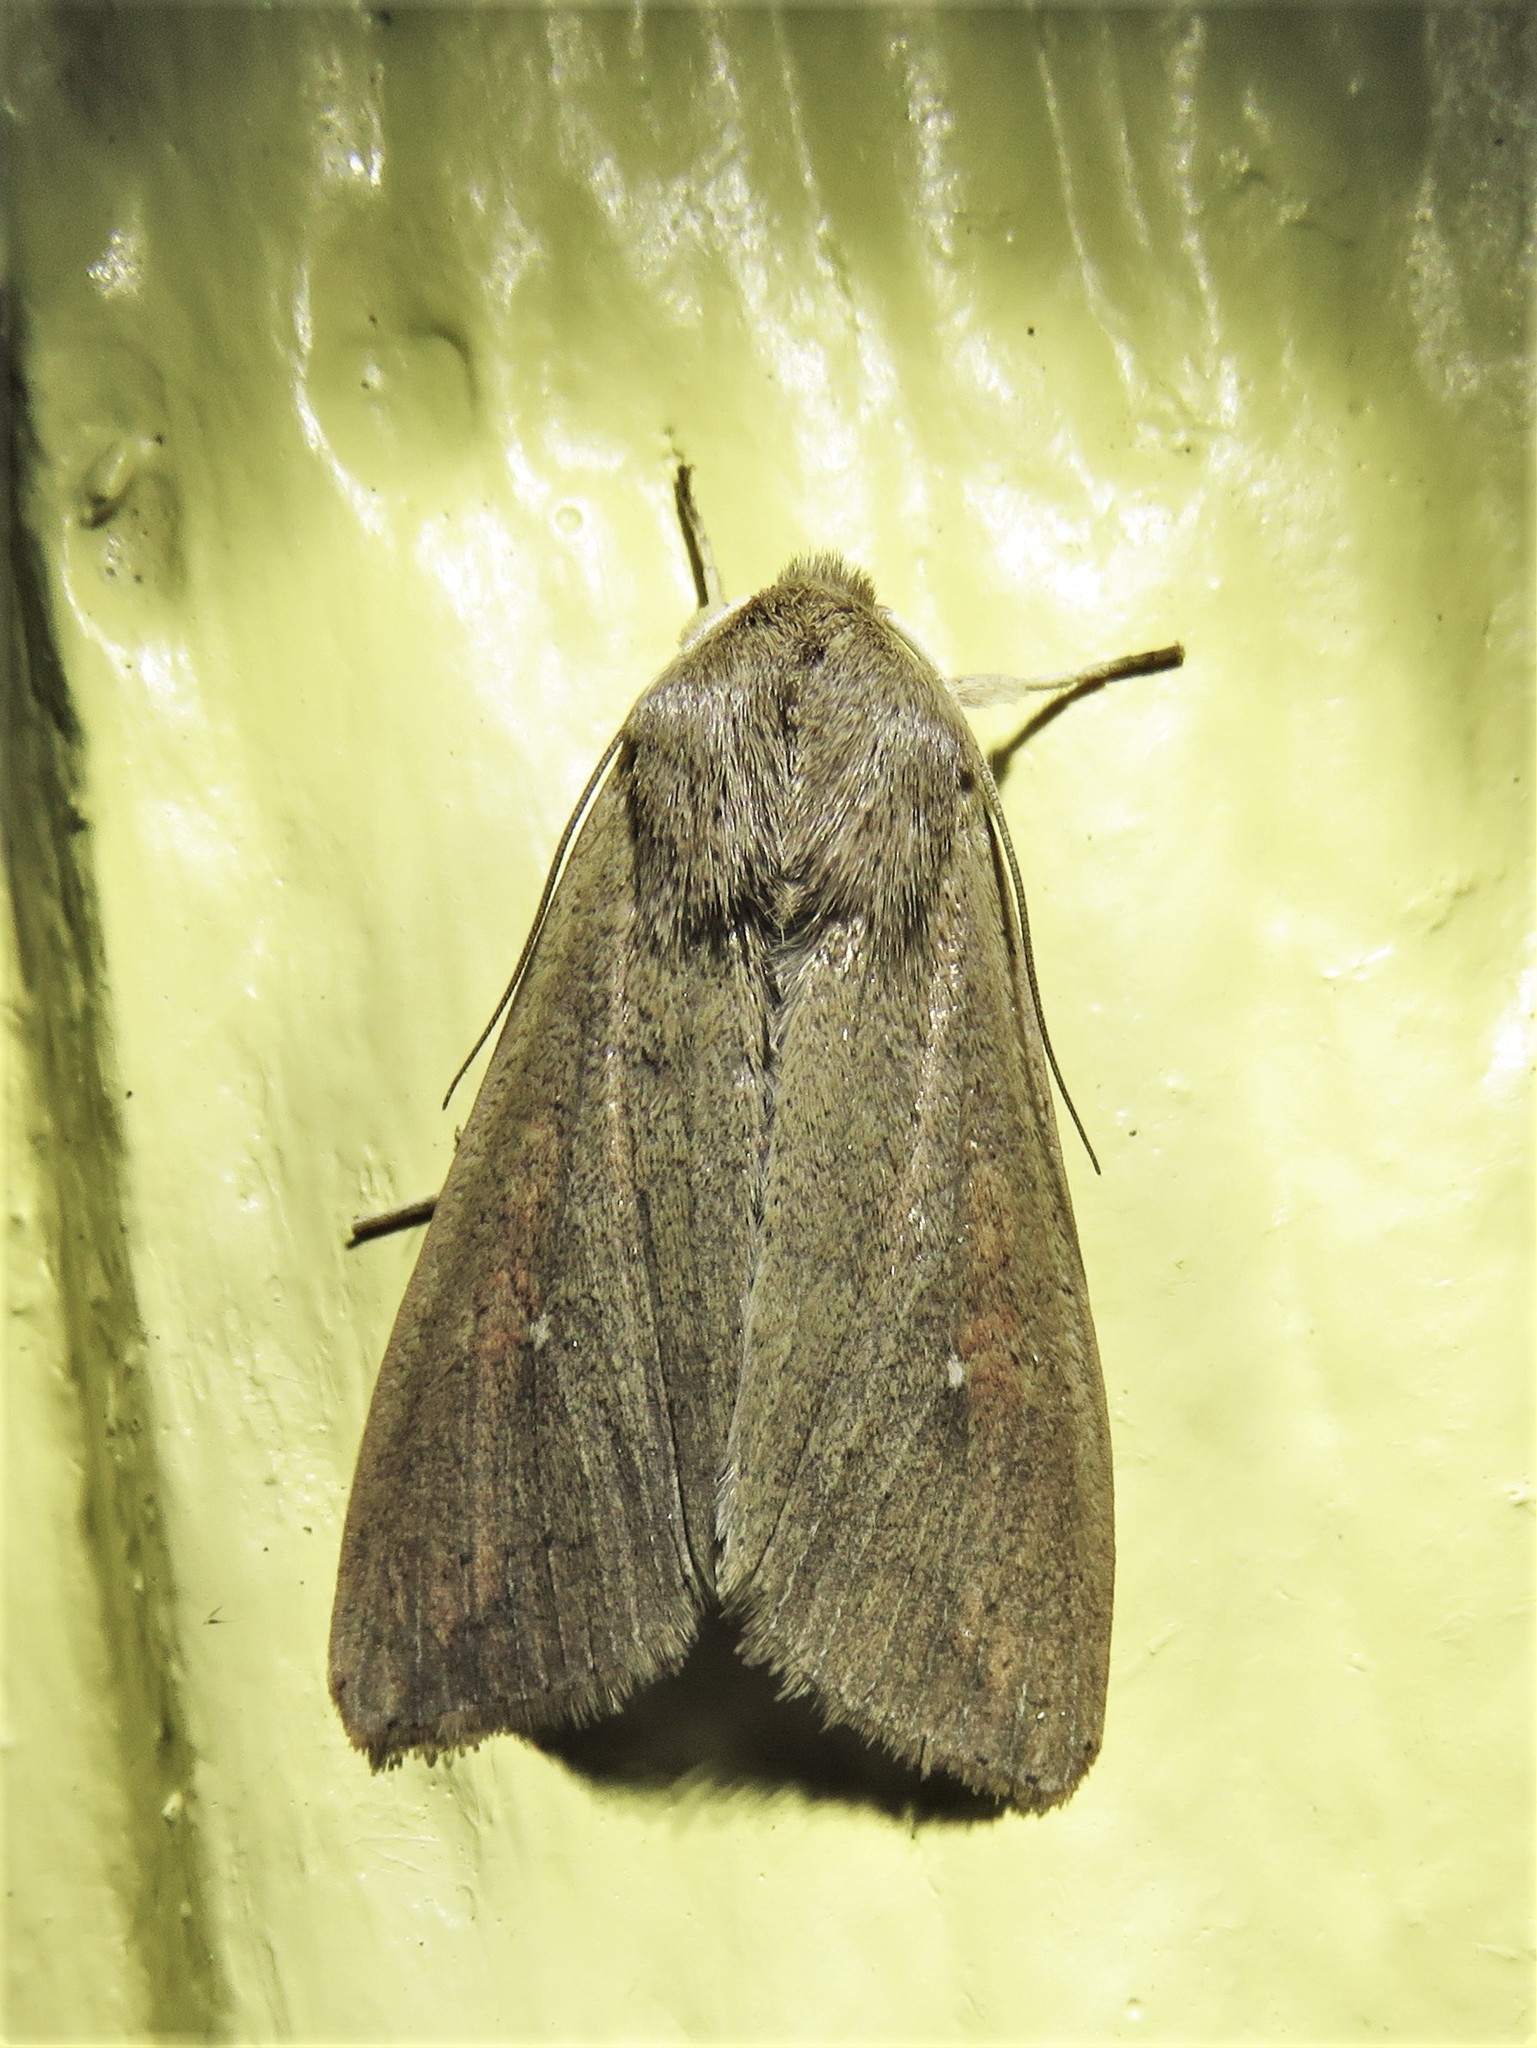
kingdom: Animalia
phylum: Arthropoda
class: Insecta
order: Lepidoptera
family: Noctuidae
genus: Mythimna
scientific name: Mythimna unipuncta
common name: White-speck
